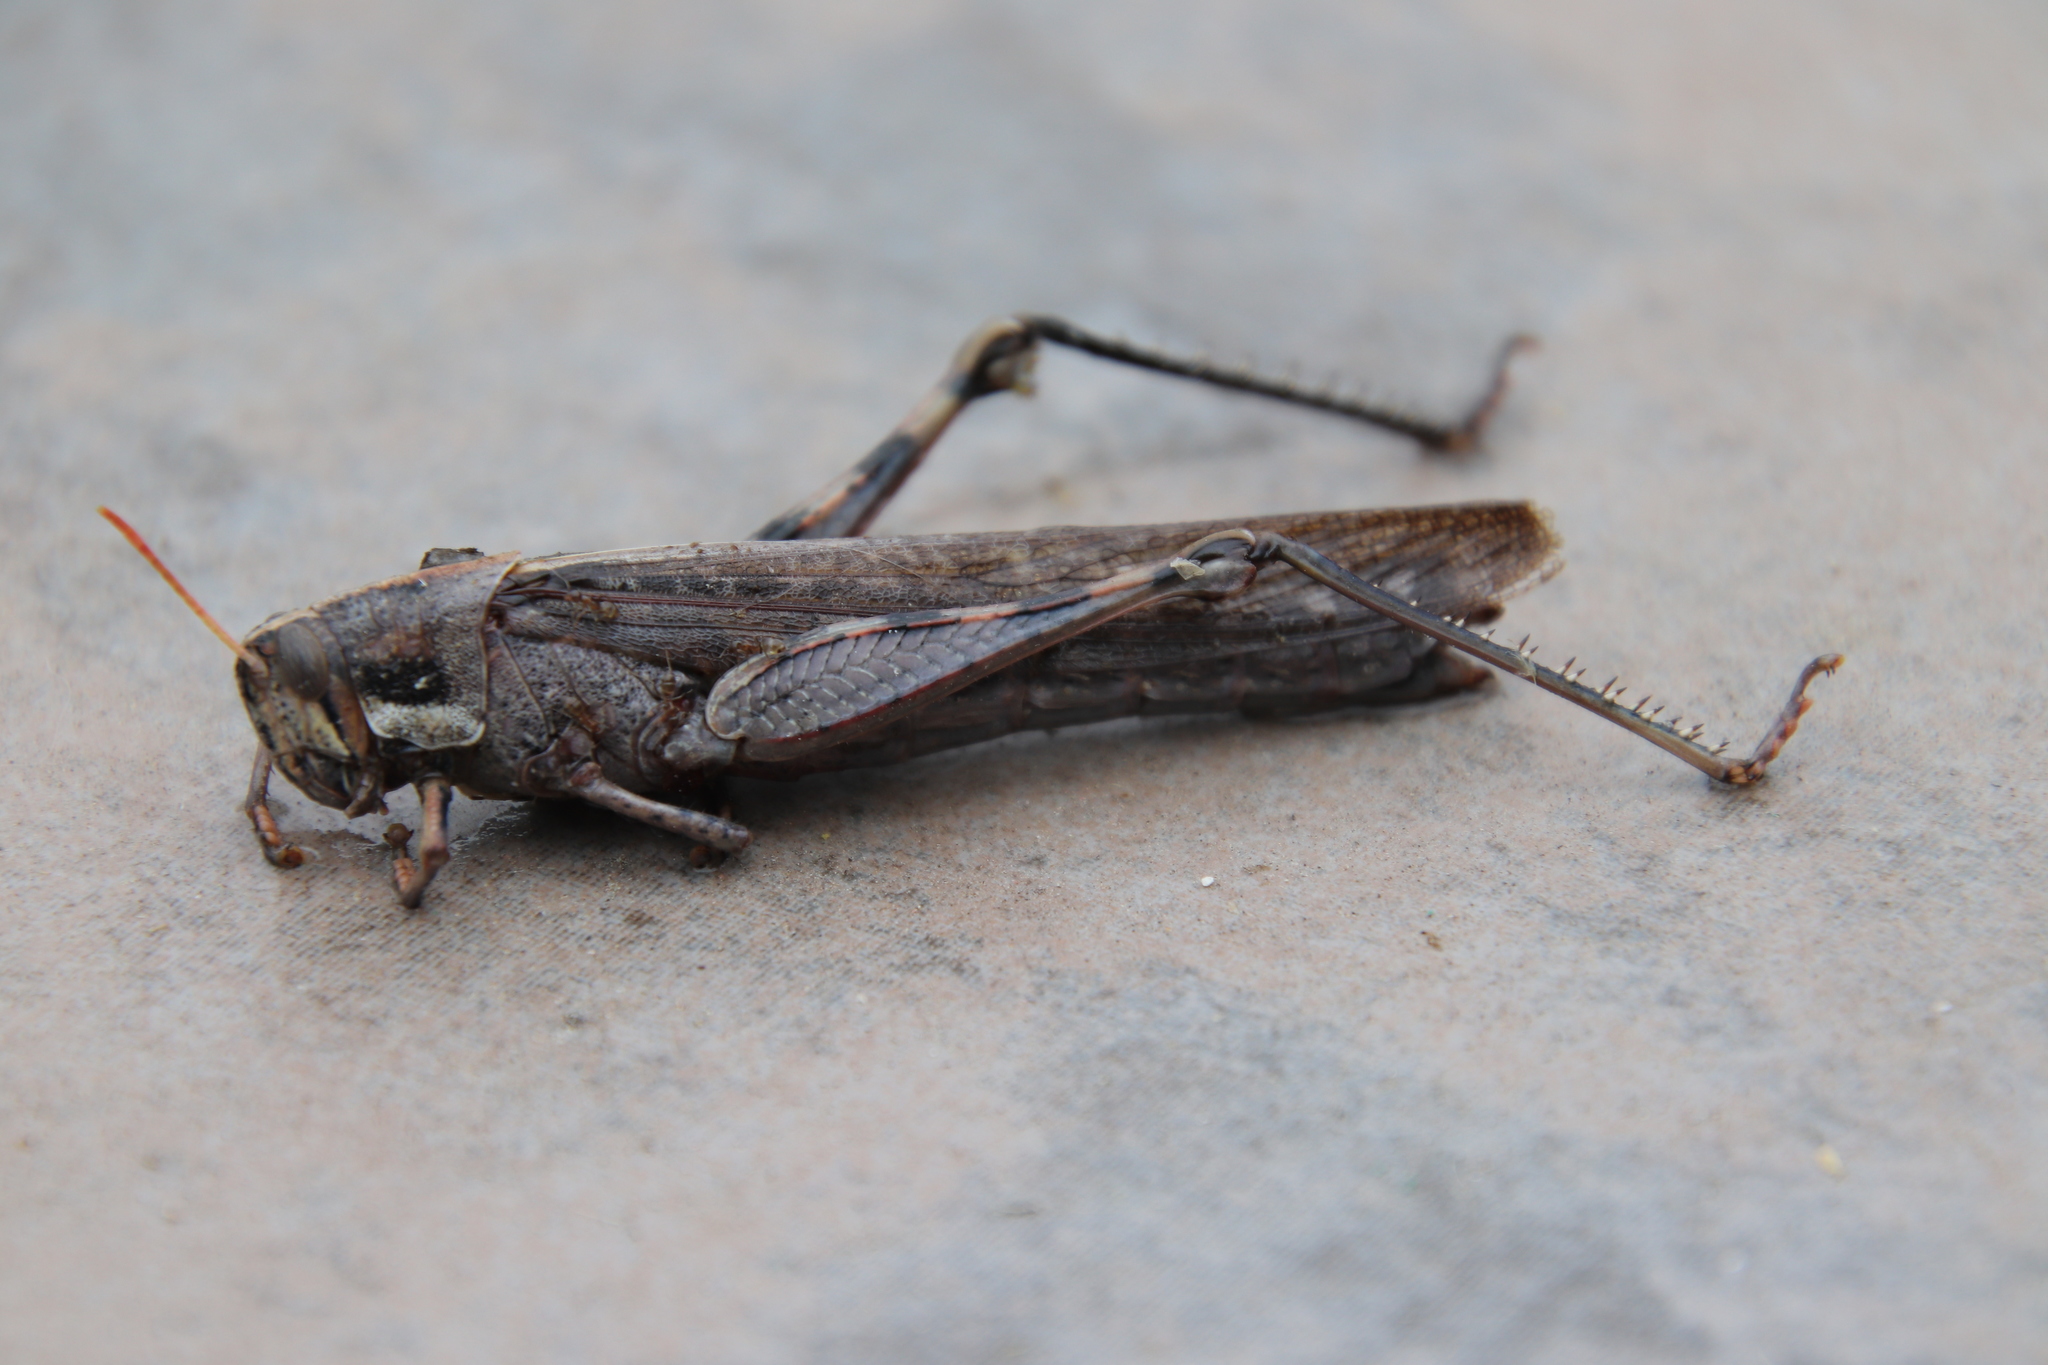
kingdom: Animalia
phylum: Arthropoda
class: Insecta
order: Orthoptera
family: Acrididae
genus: Schistocerca
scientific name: Schistocerca nitens
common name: Vagrant grasshopper
